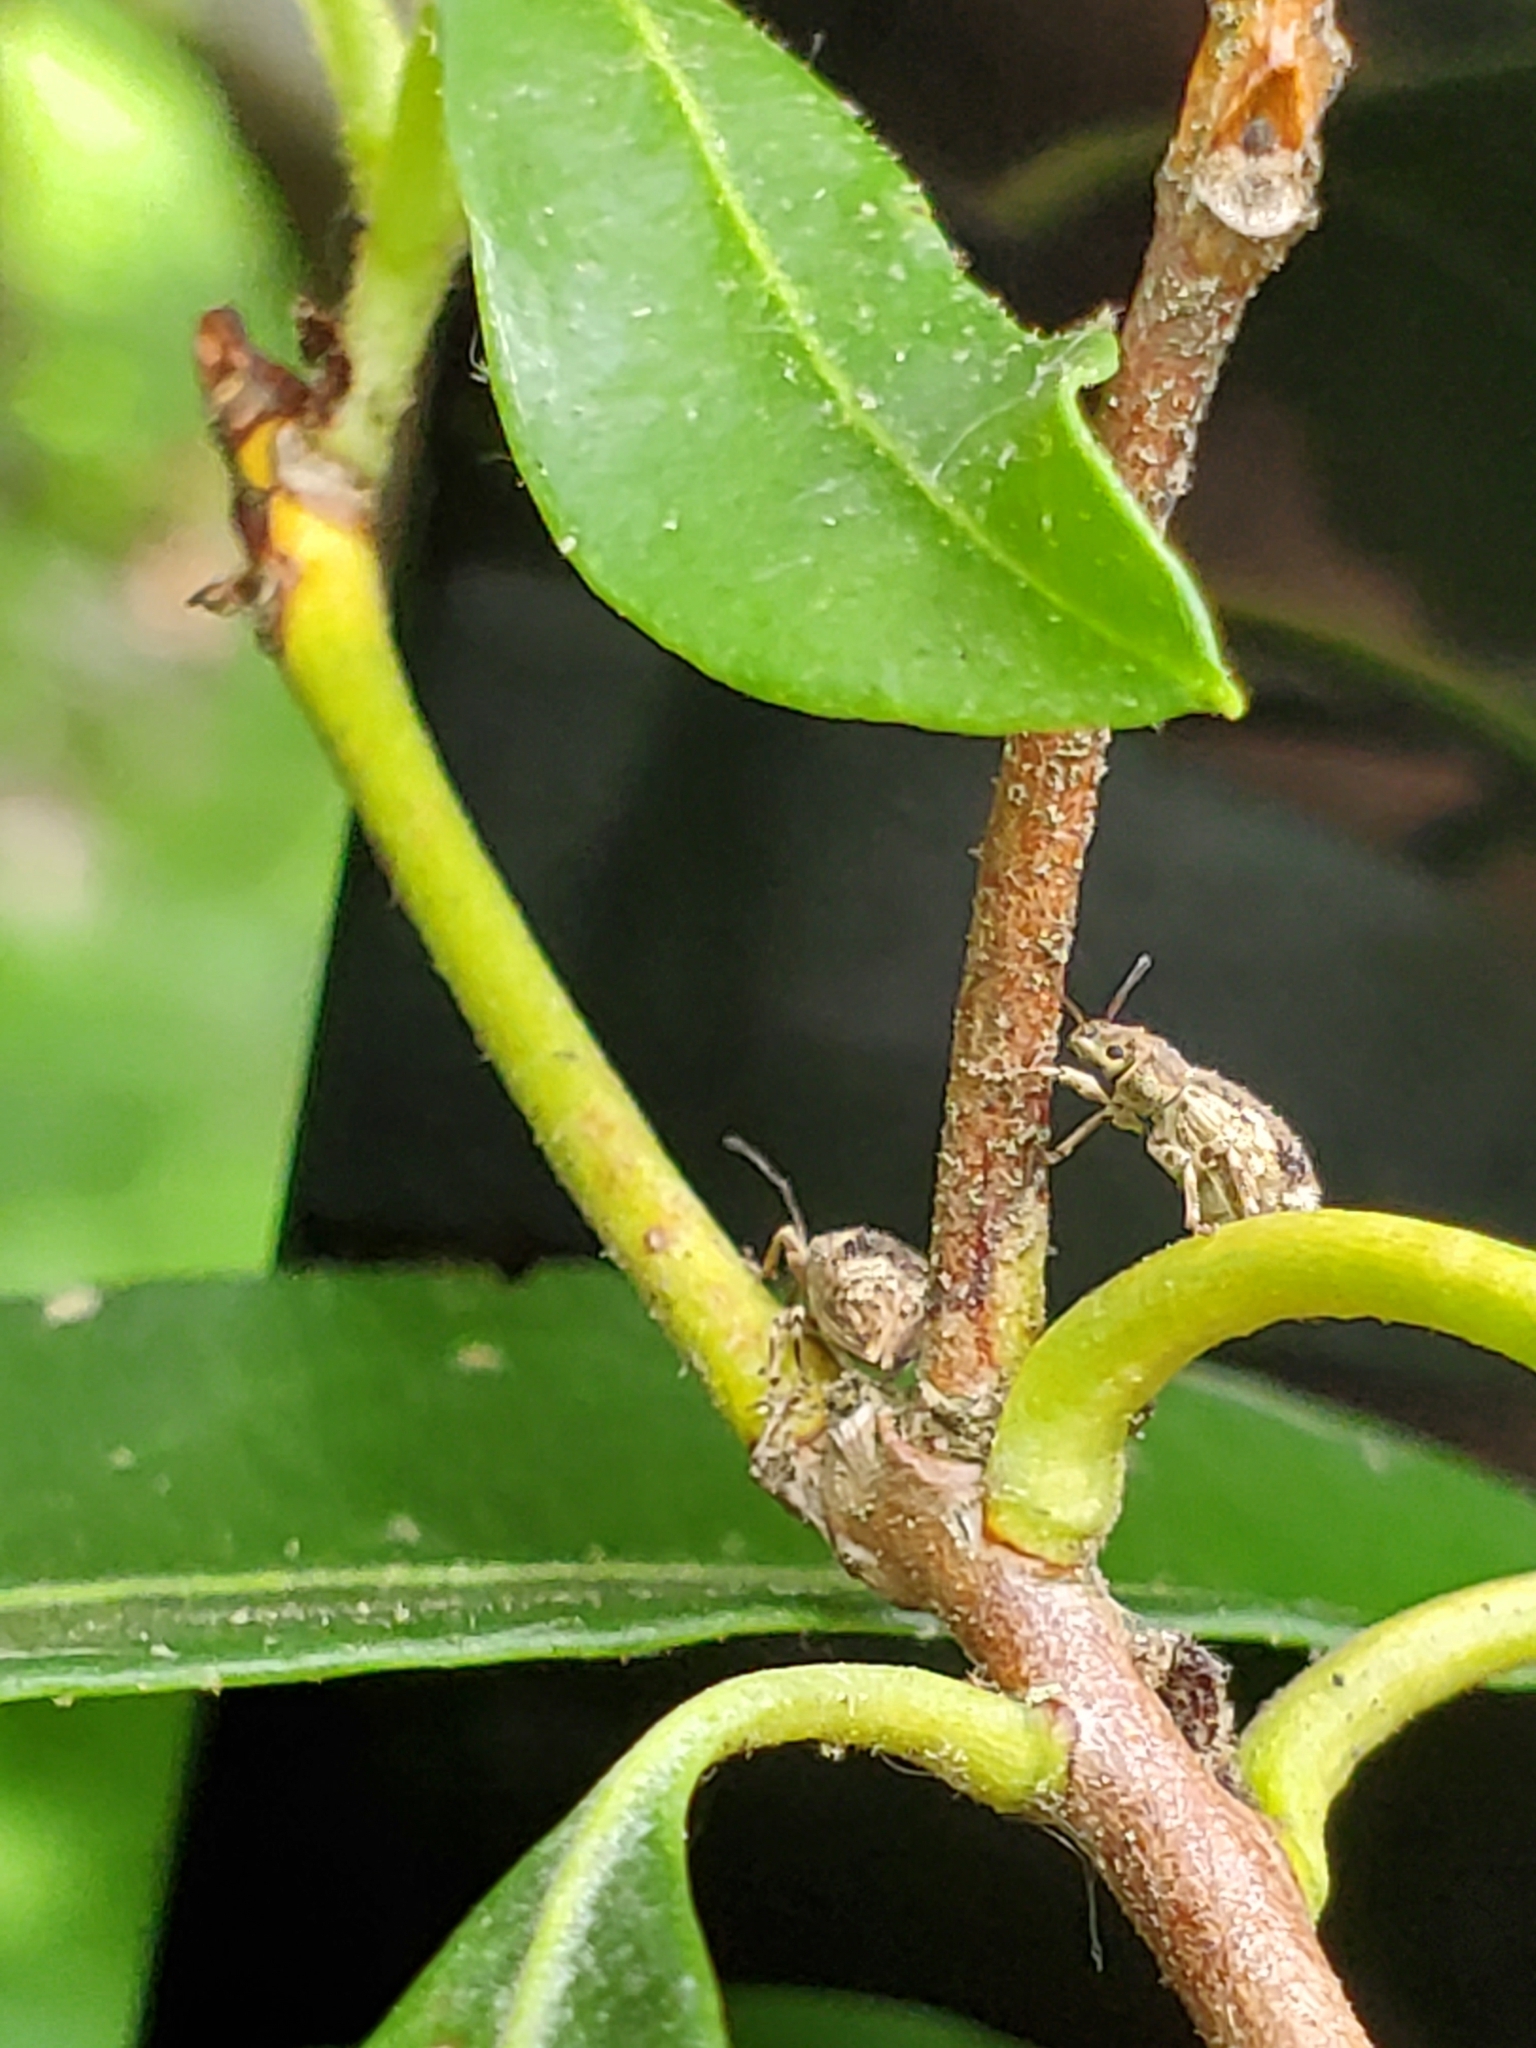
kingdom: Animalia
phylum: Arthropoda
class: Insecta
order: Coleoptera
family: Curculionidae
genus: Pseudoedophrys
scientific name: Pseudoedophrys hilleri
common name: Weevil
